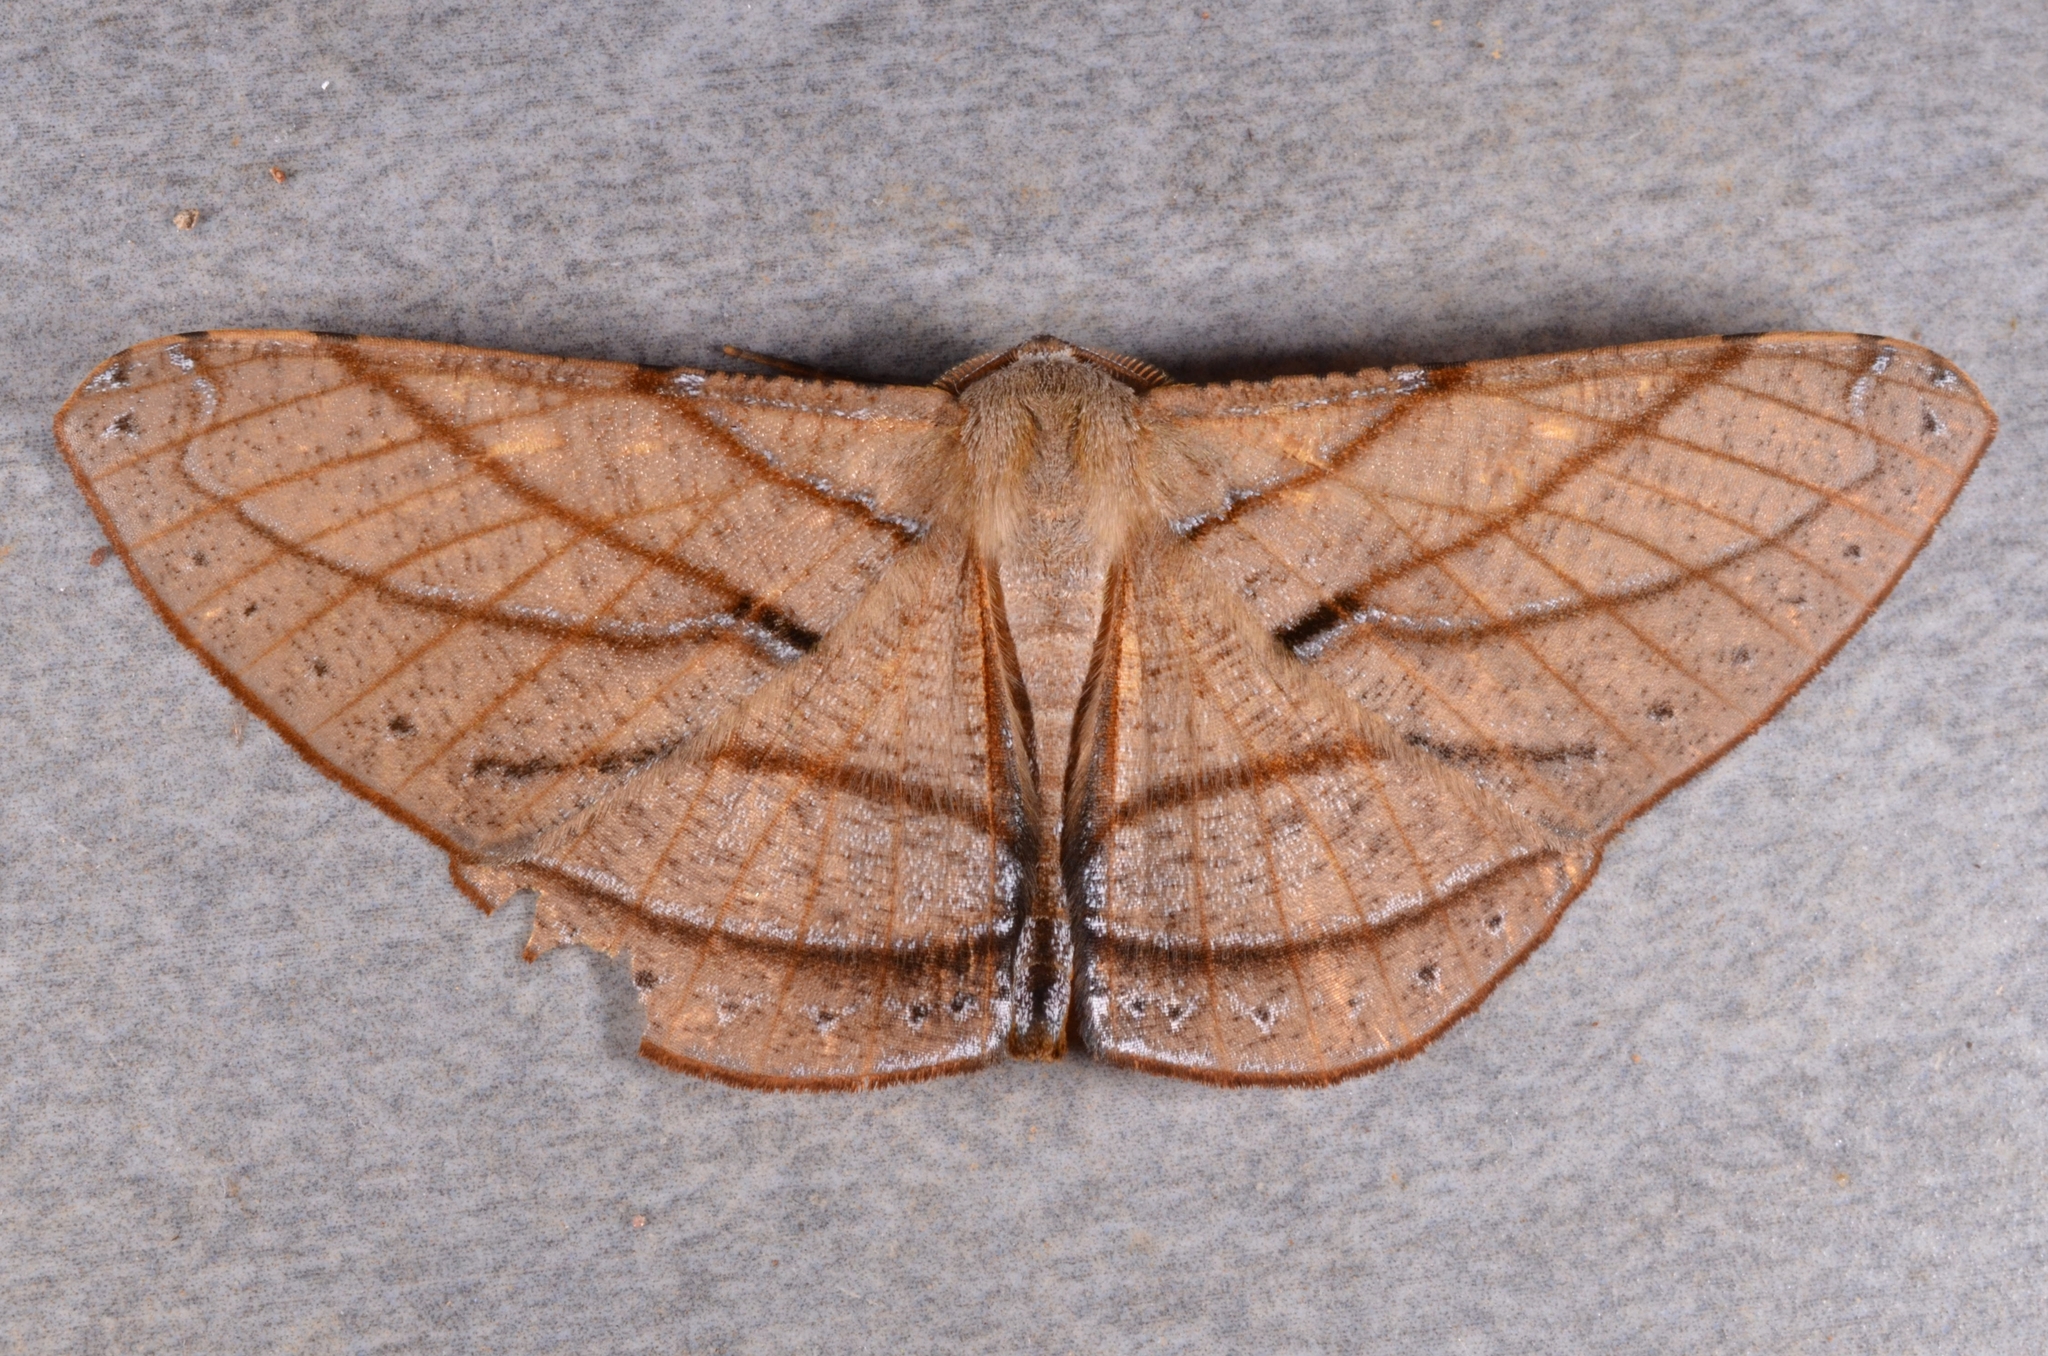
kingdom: Animalia
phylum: Arthropoda
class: Insecta
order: Lepidoptera
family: Geometridae
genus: Dalima
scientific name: Dalima patularia
